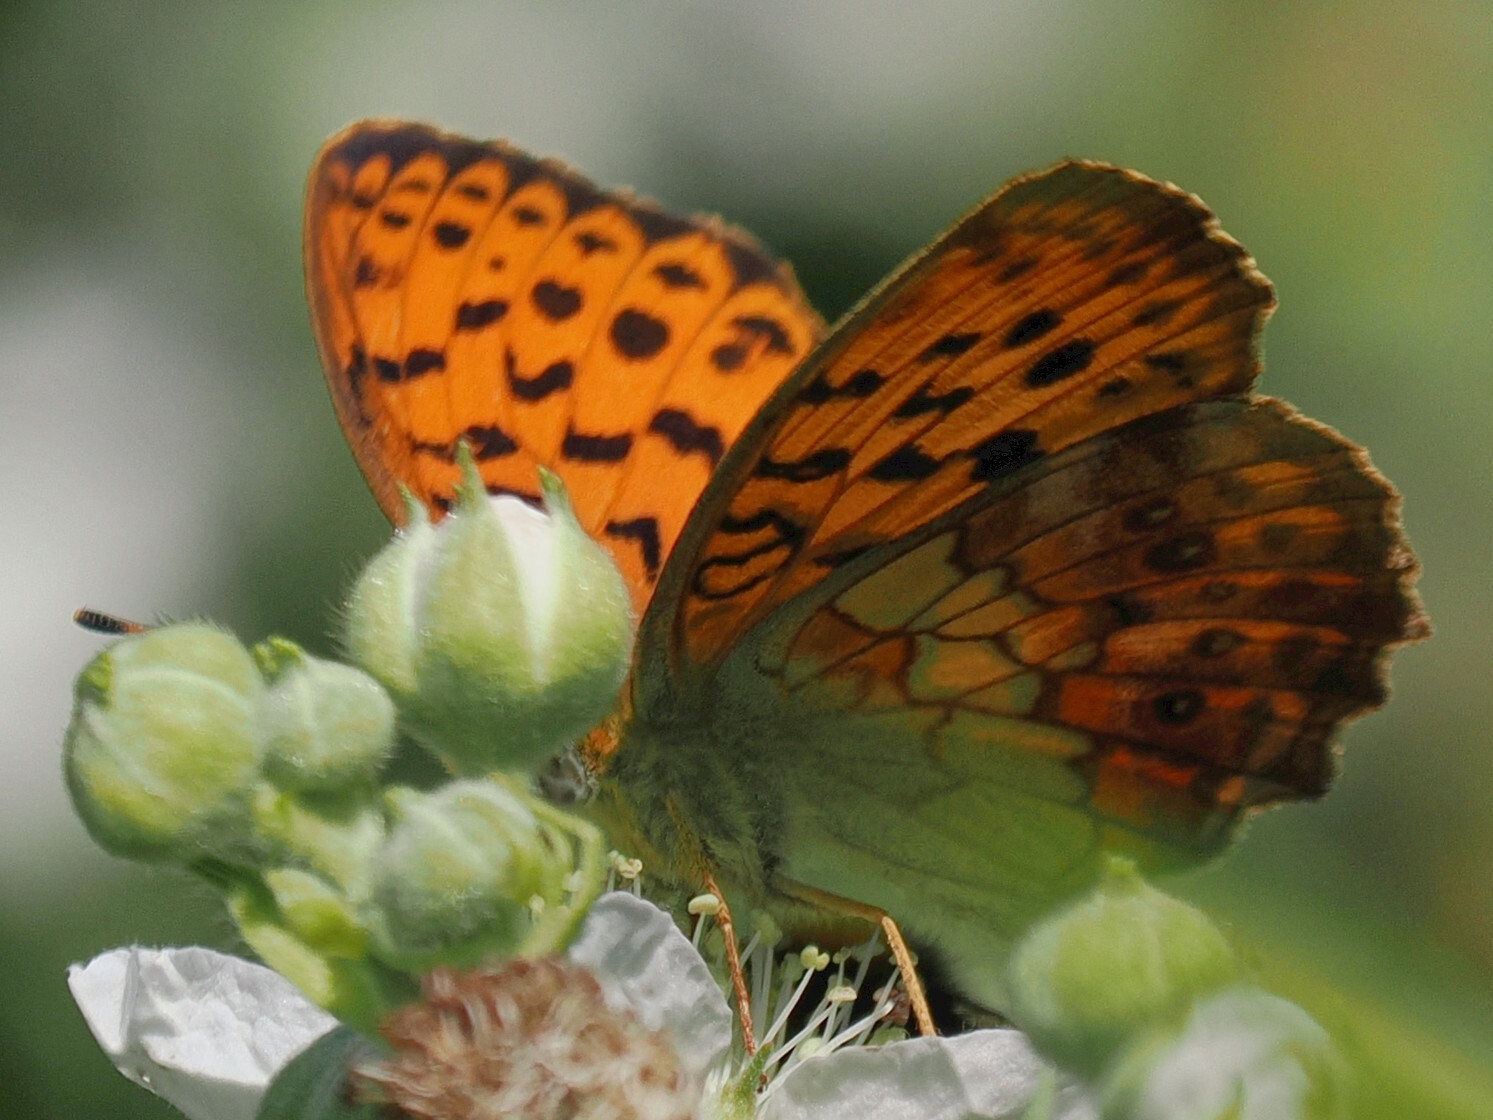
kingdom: Animalia
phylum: Arthropoda
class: Insecta
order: Lepidoptera
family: Nymphalidae
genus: Brenthis
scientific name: Brenthis daphne
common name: Marbled fritillary
